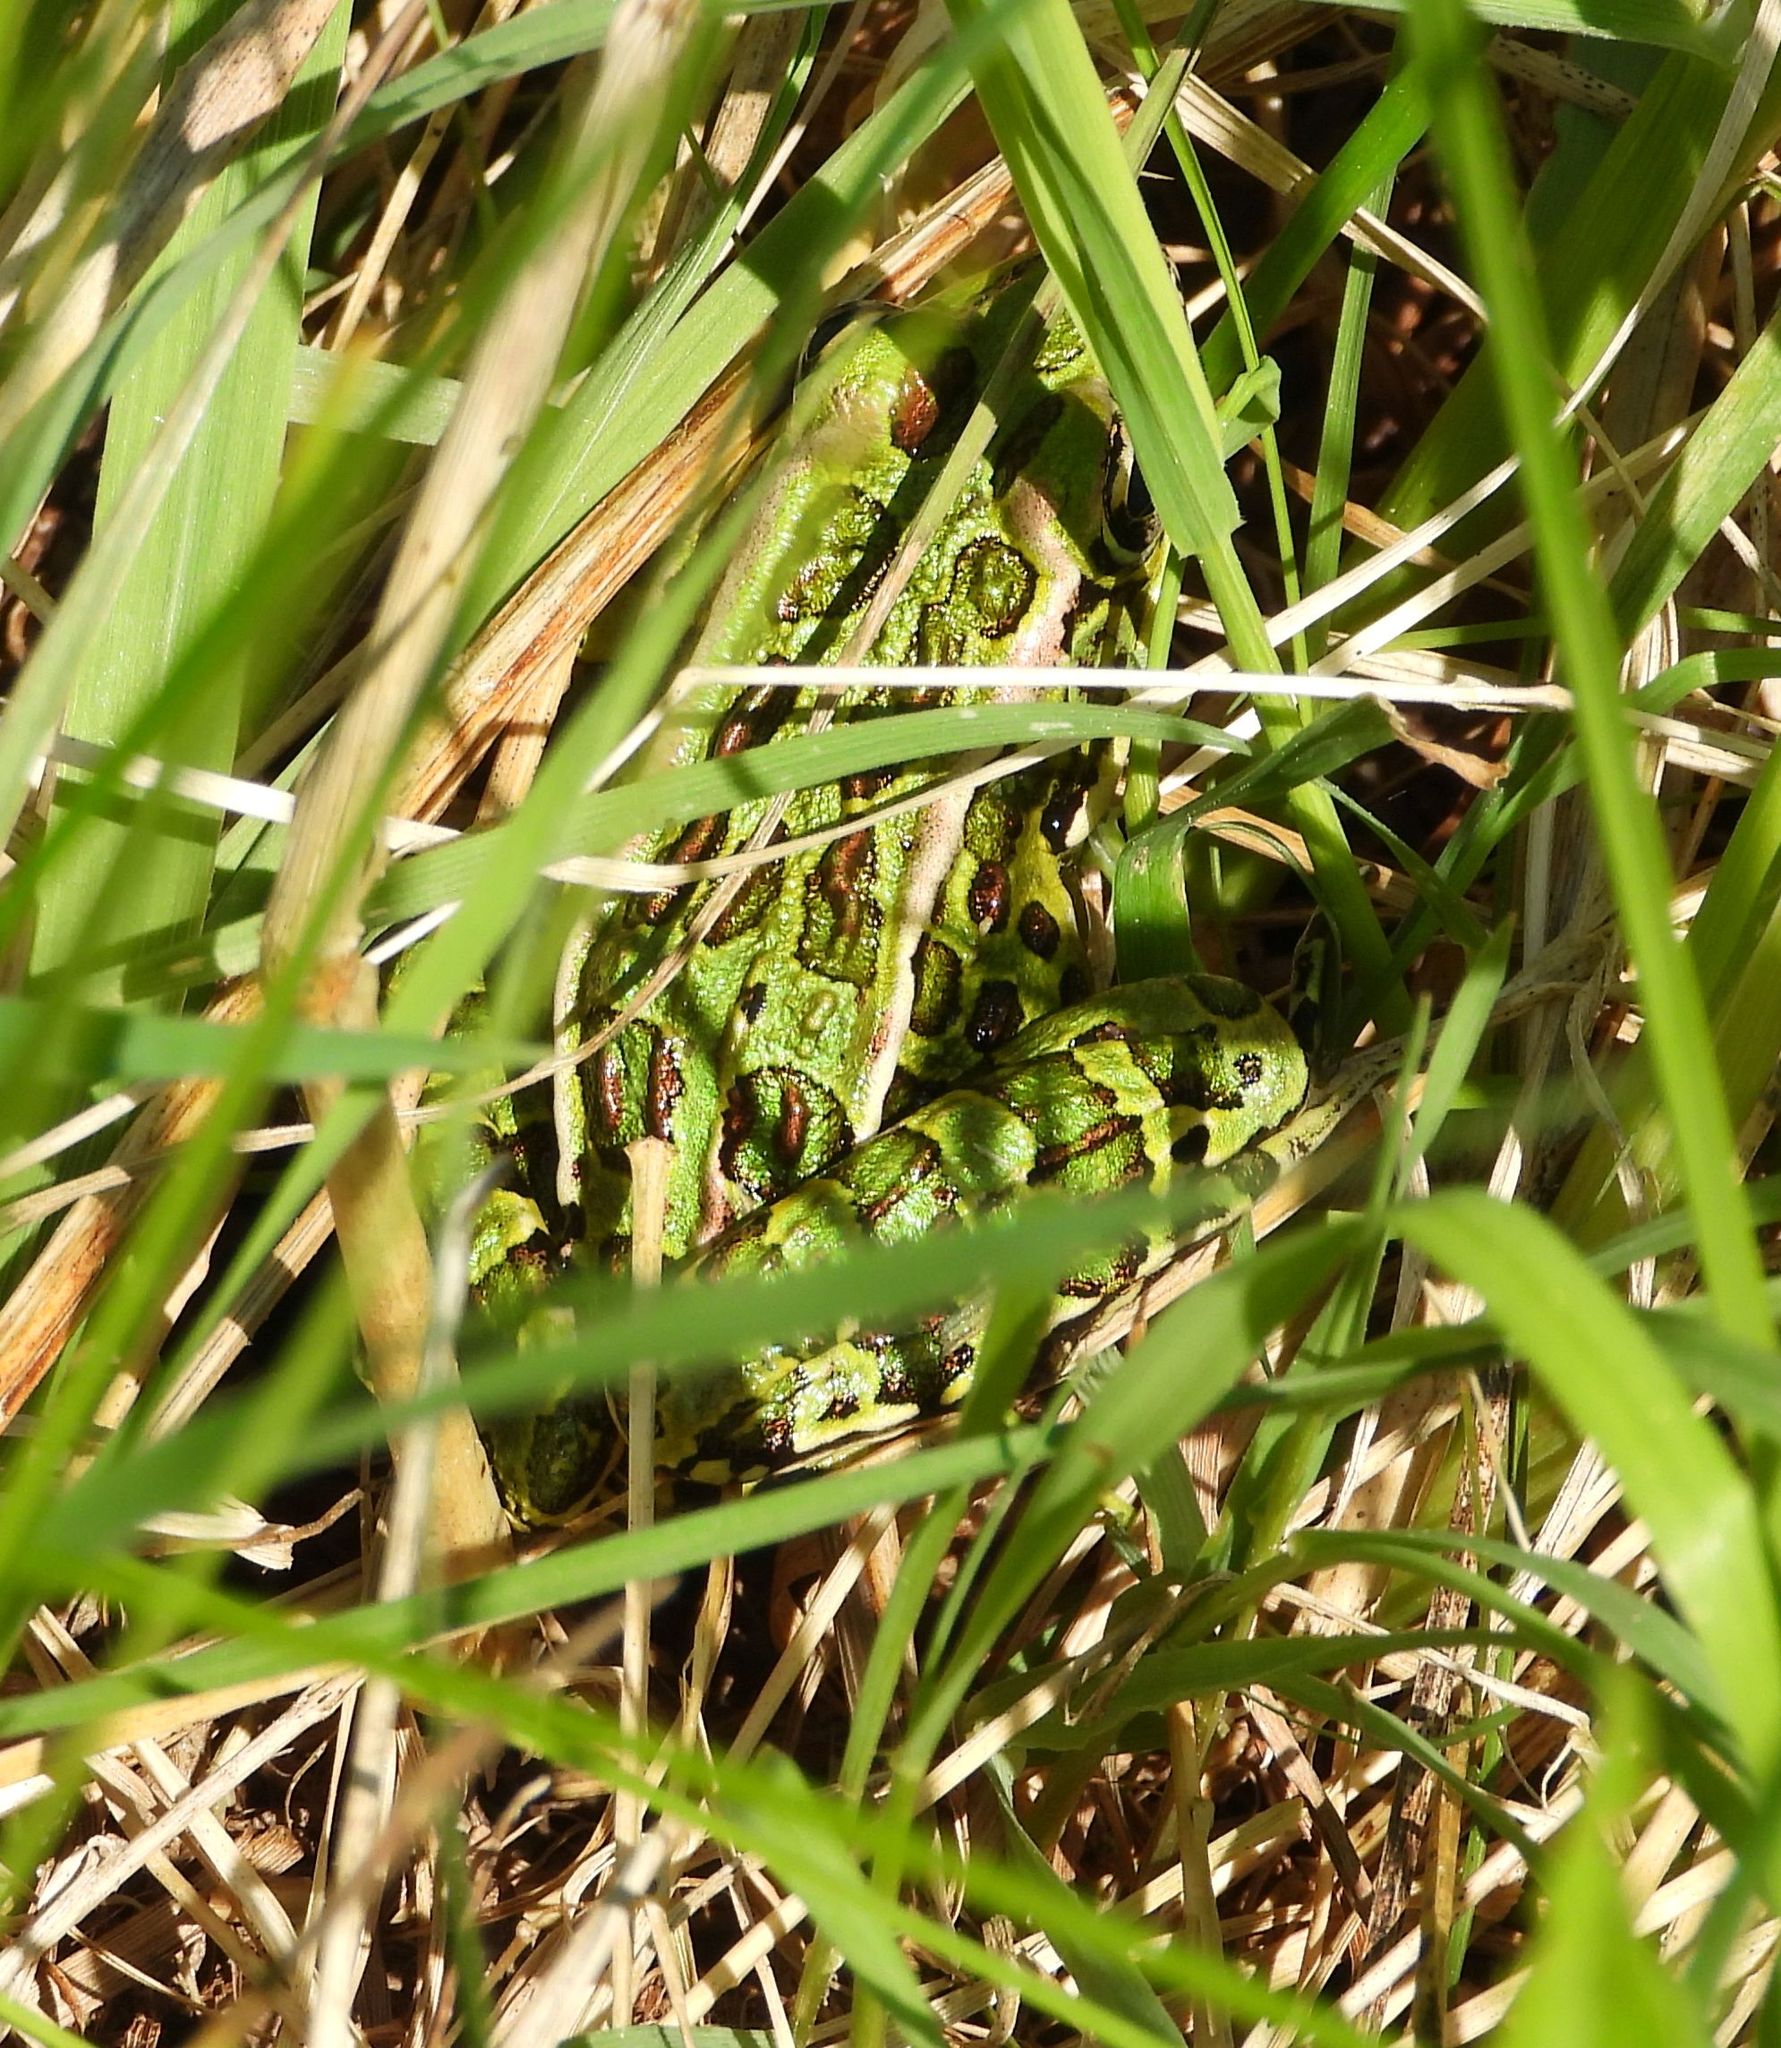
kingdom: Animalia
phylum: Chordata
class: Amphibia
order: Anura
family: Ranidae
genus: Lithobates
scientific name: Lithobates pipiens
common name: Northern leopard frog
